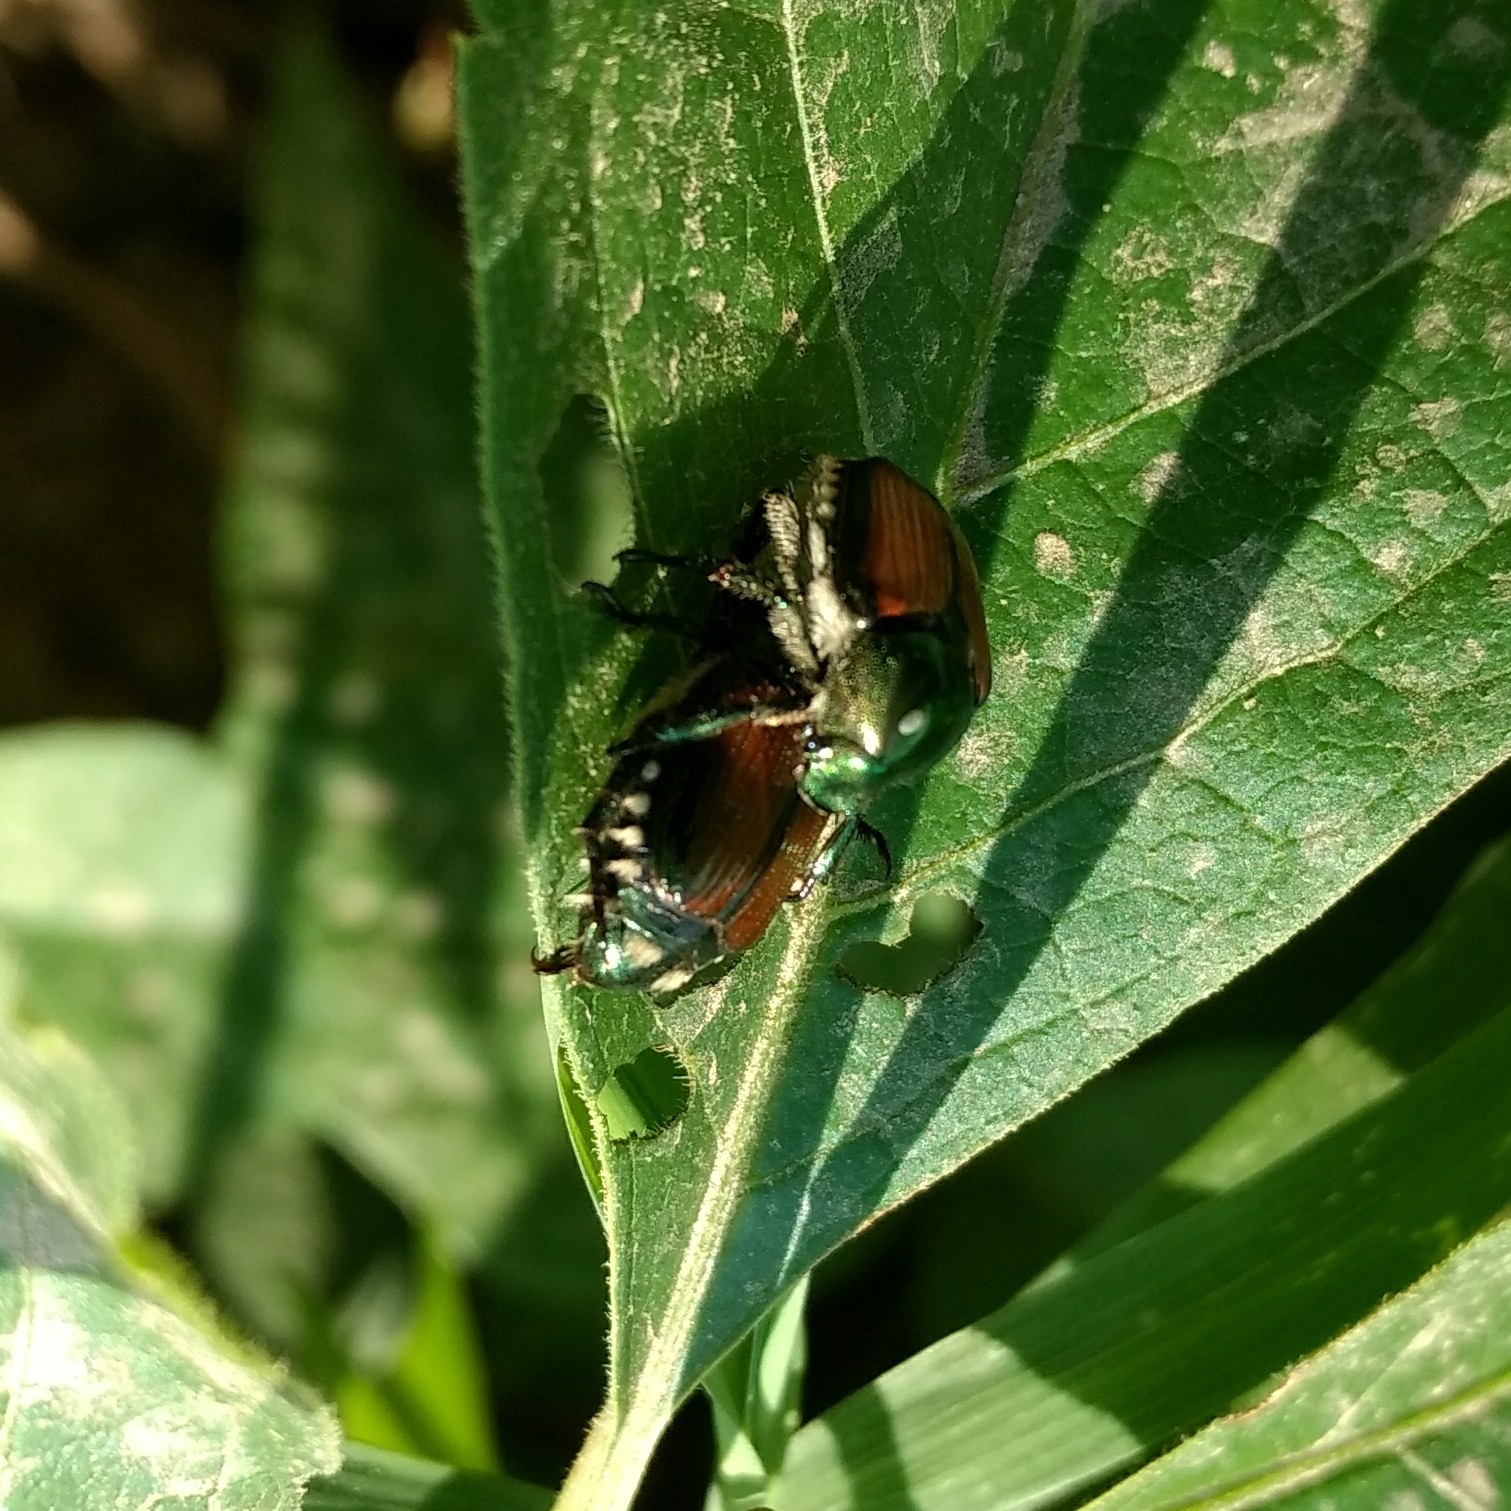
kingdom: Animalia
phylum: Arthropoda
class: Insecta
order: Coleoptera
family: Scarabaeidae
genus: Popillia
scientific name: Popillia japonica
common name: Japanese beetle
